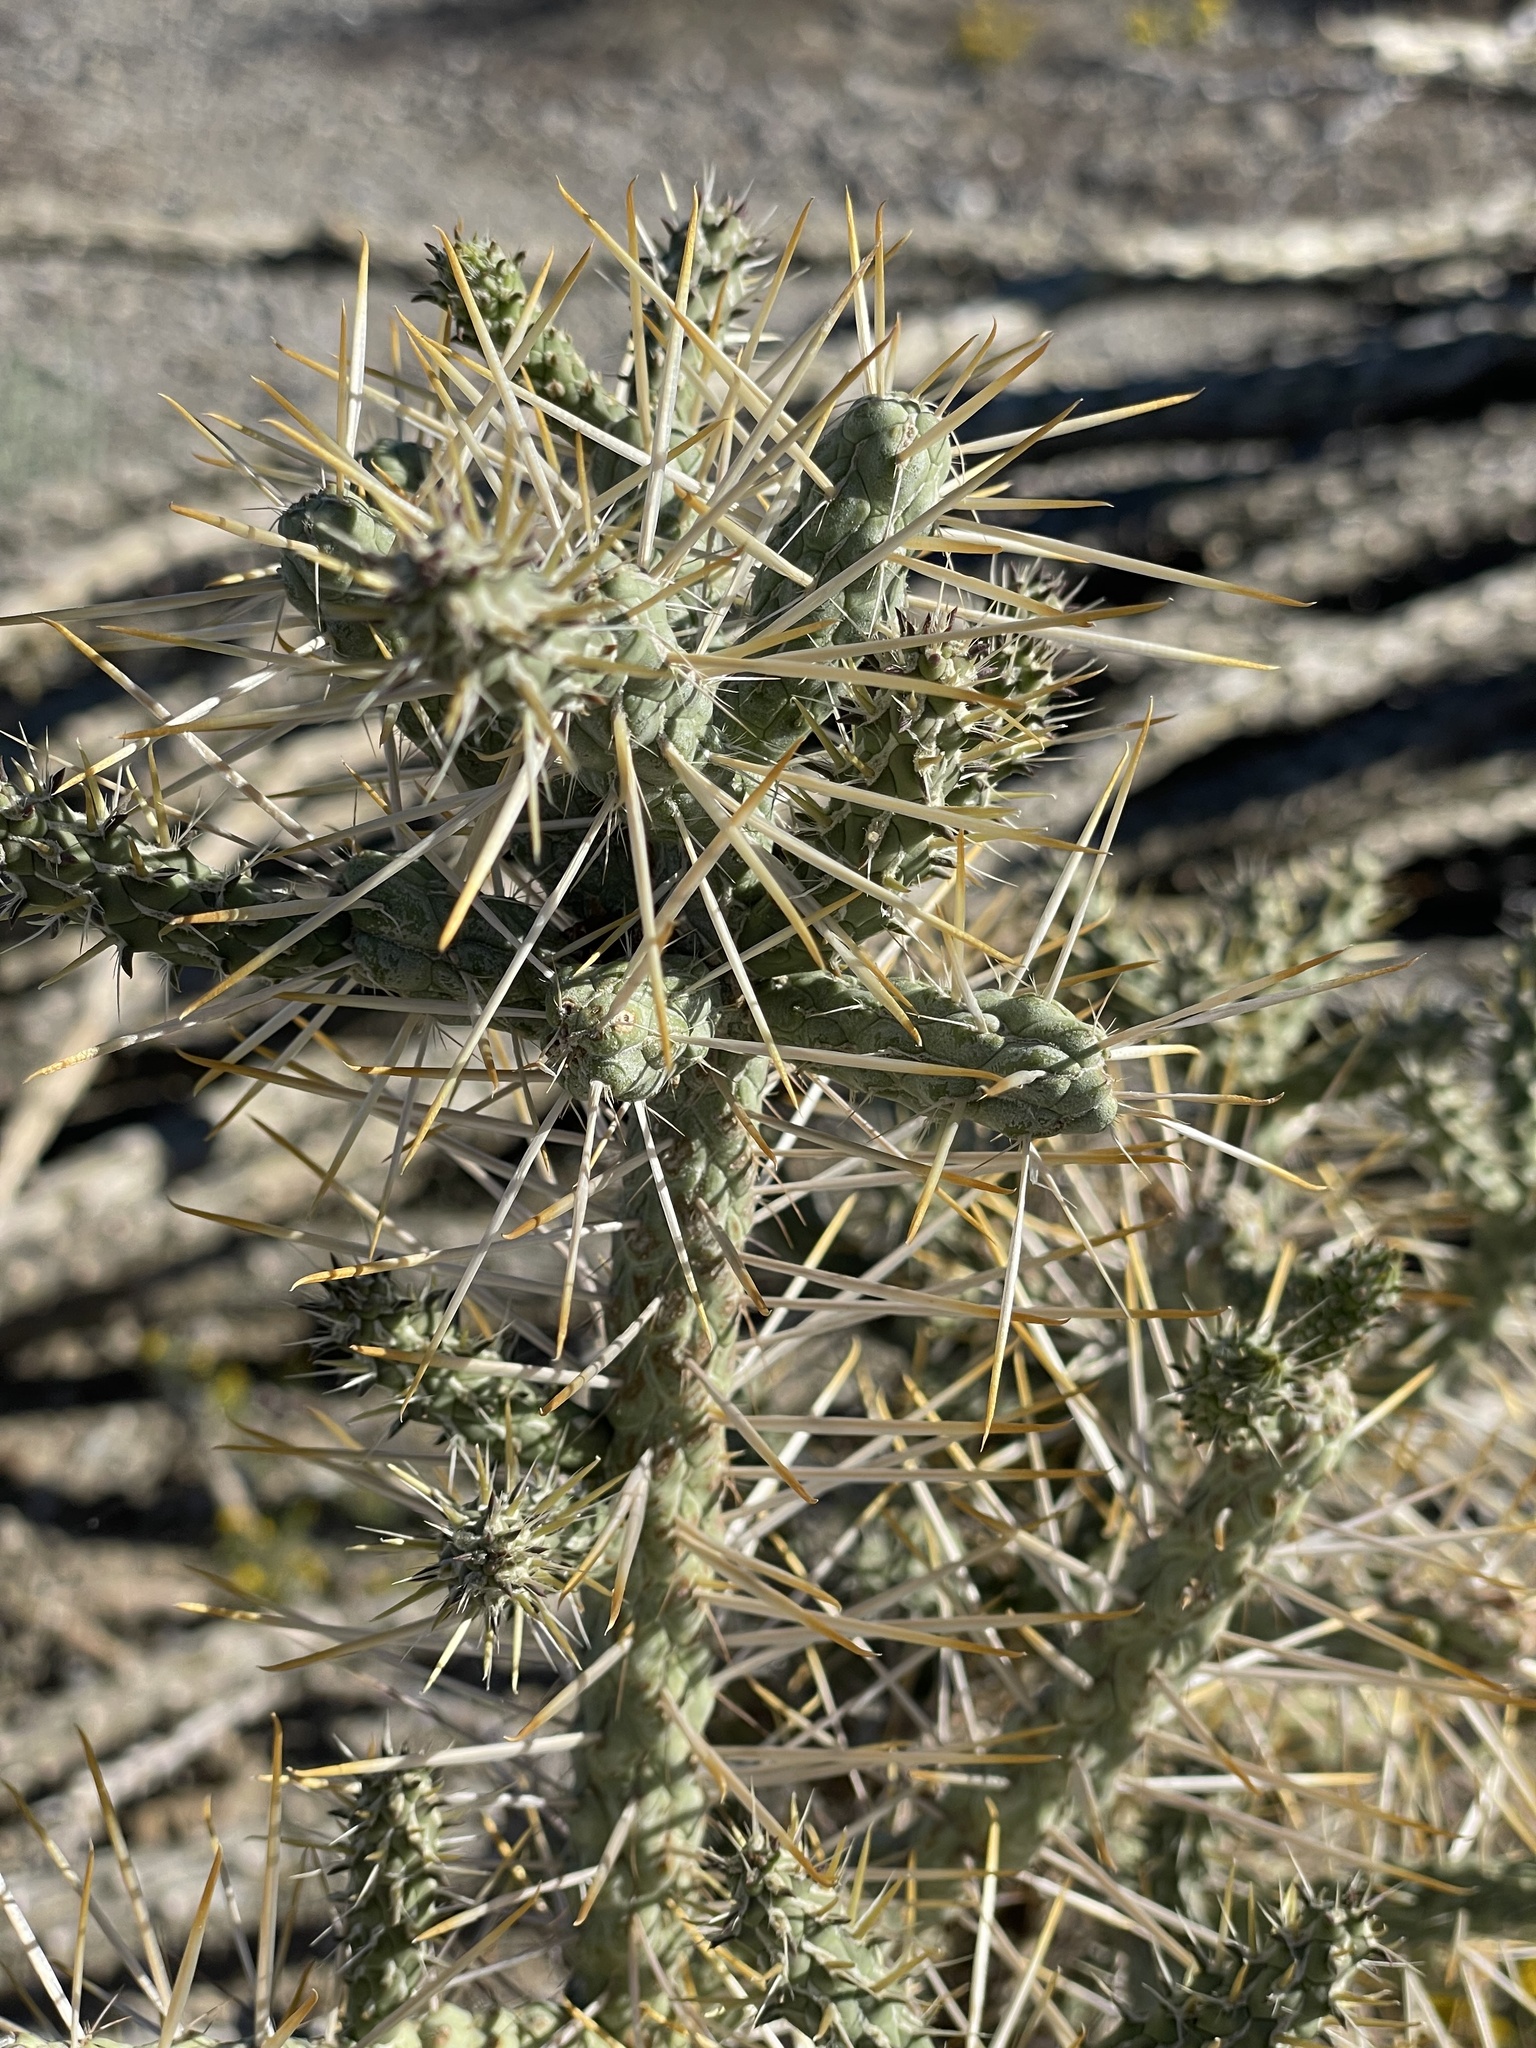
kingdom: Plantae
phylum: Tracheophyta
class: Magnoliopsida
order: Caryophyllales
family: Cactaceae
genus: Cylindropuntia
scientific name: Cylindropuntia ramosissima
